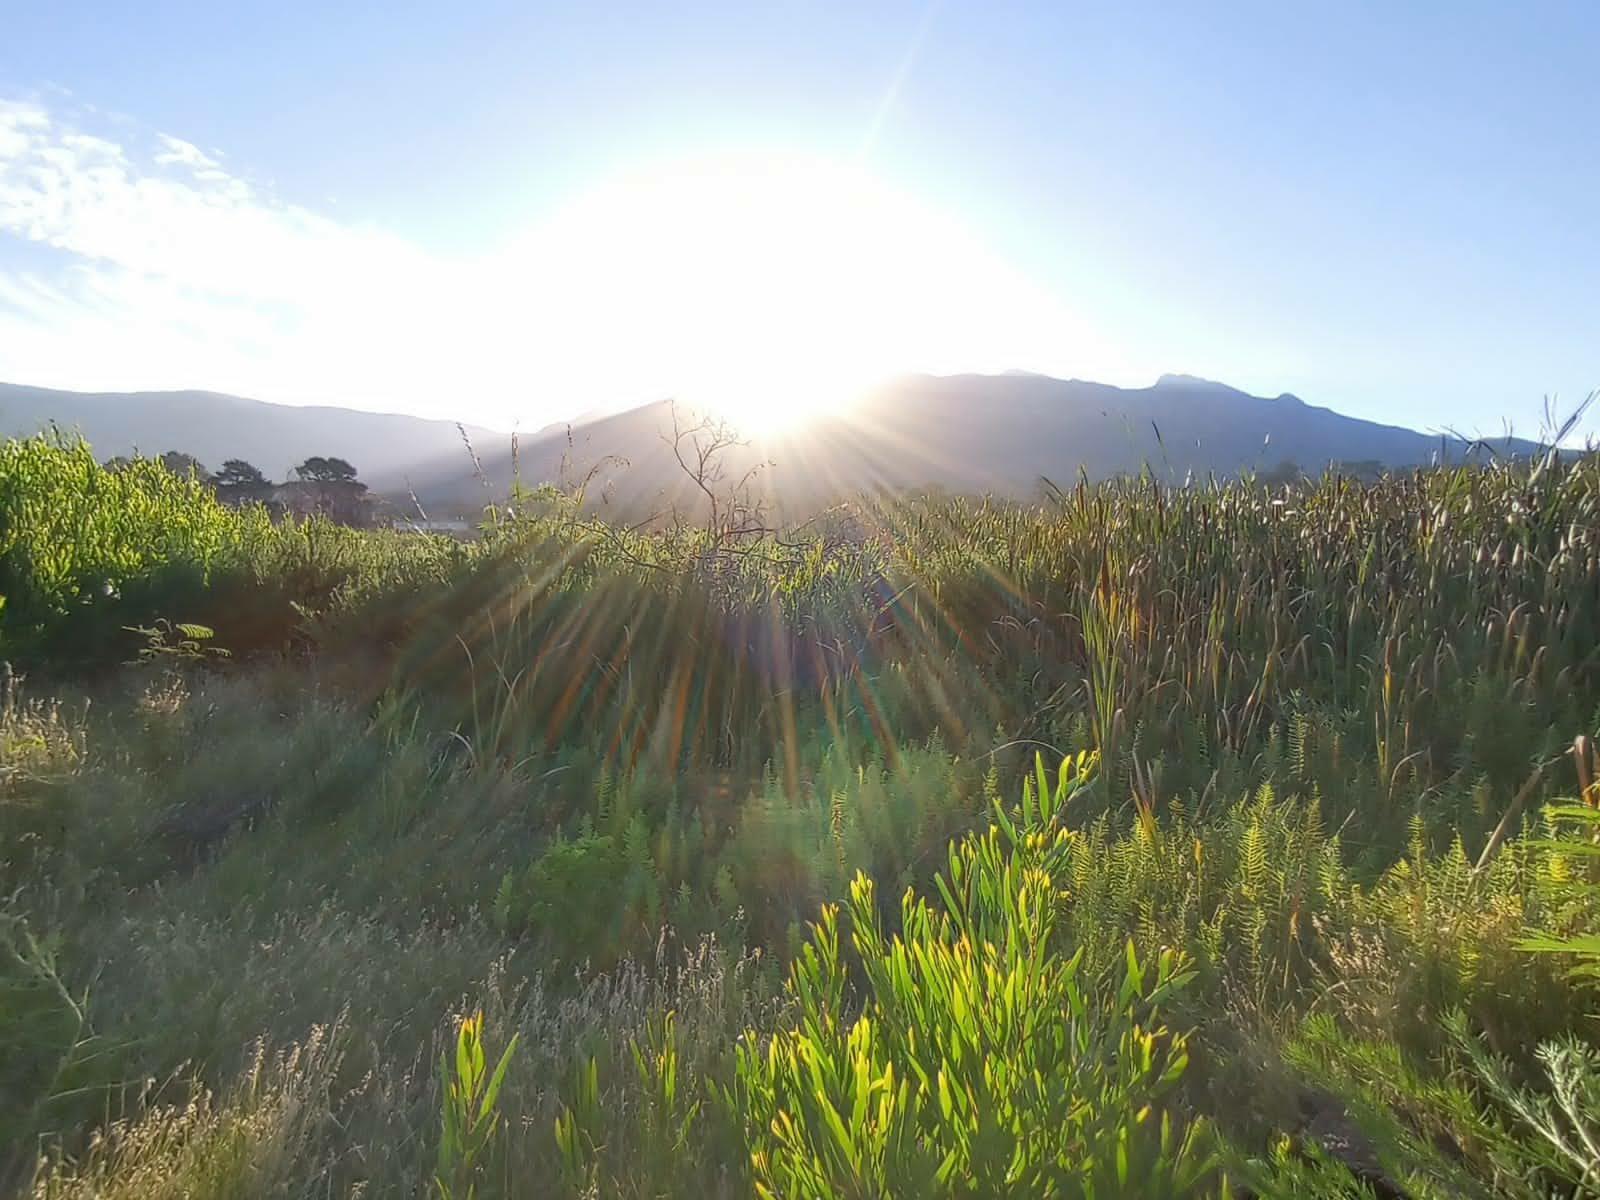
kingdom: Plantae
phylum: Tracheophyta
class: Polypodiopsida
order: Polypodiales
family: Thelypteridaceae
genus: Thelypteris
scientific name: Thelypteris confluens
